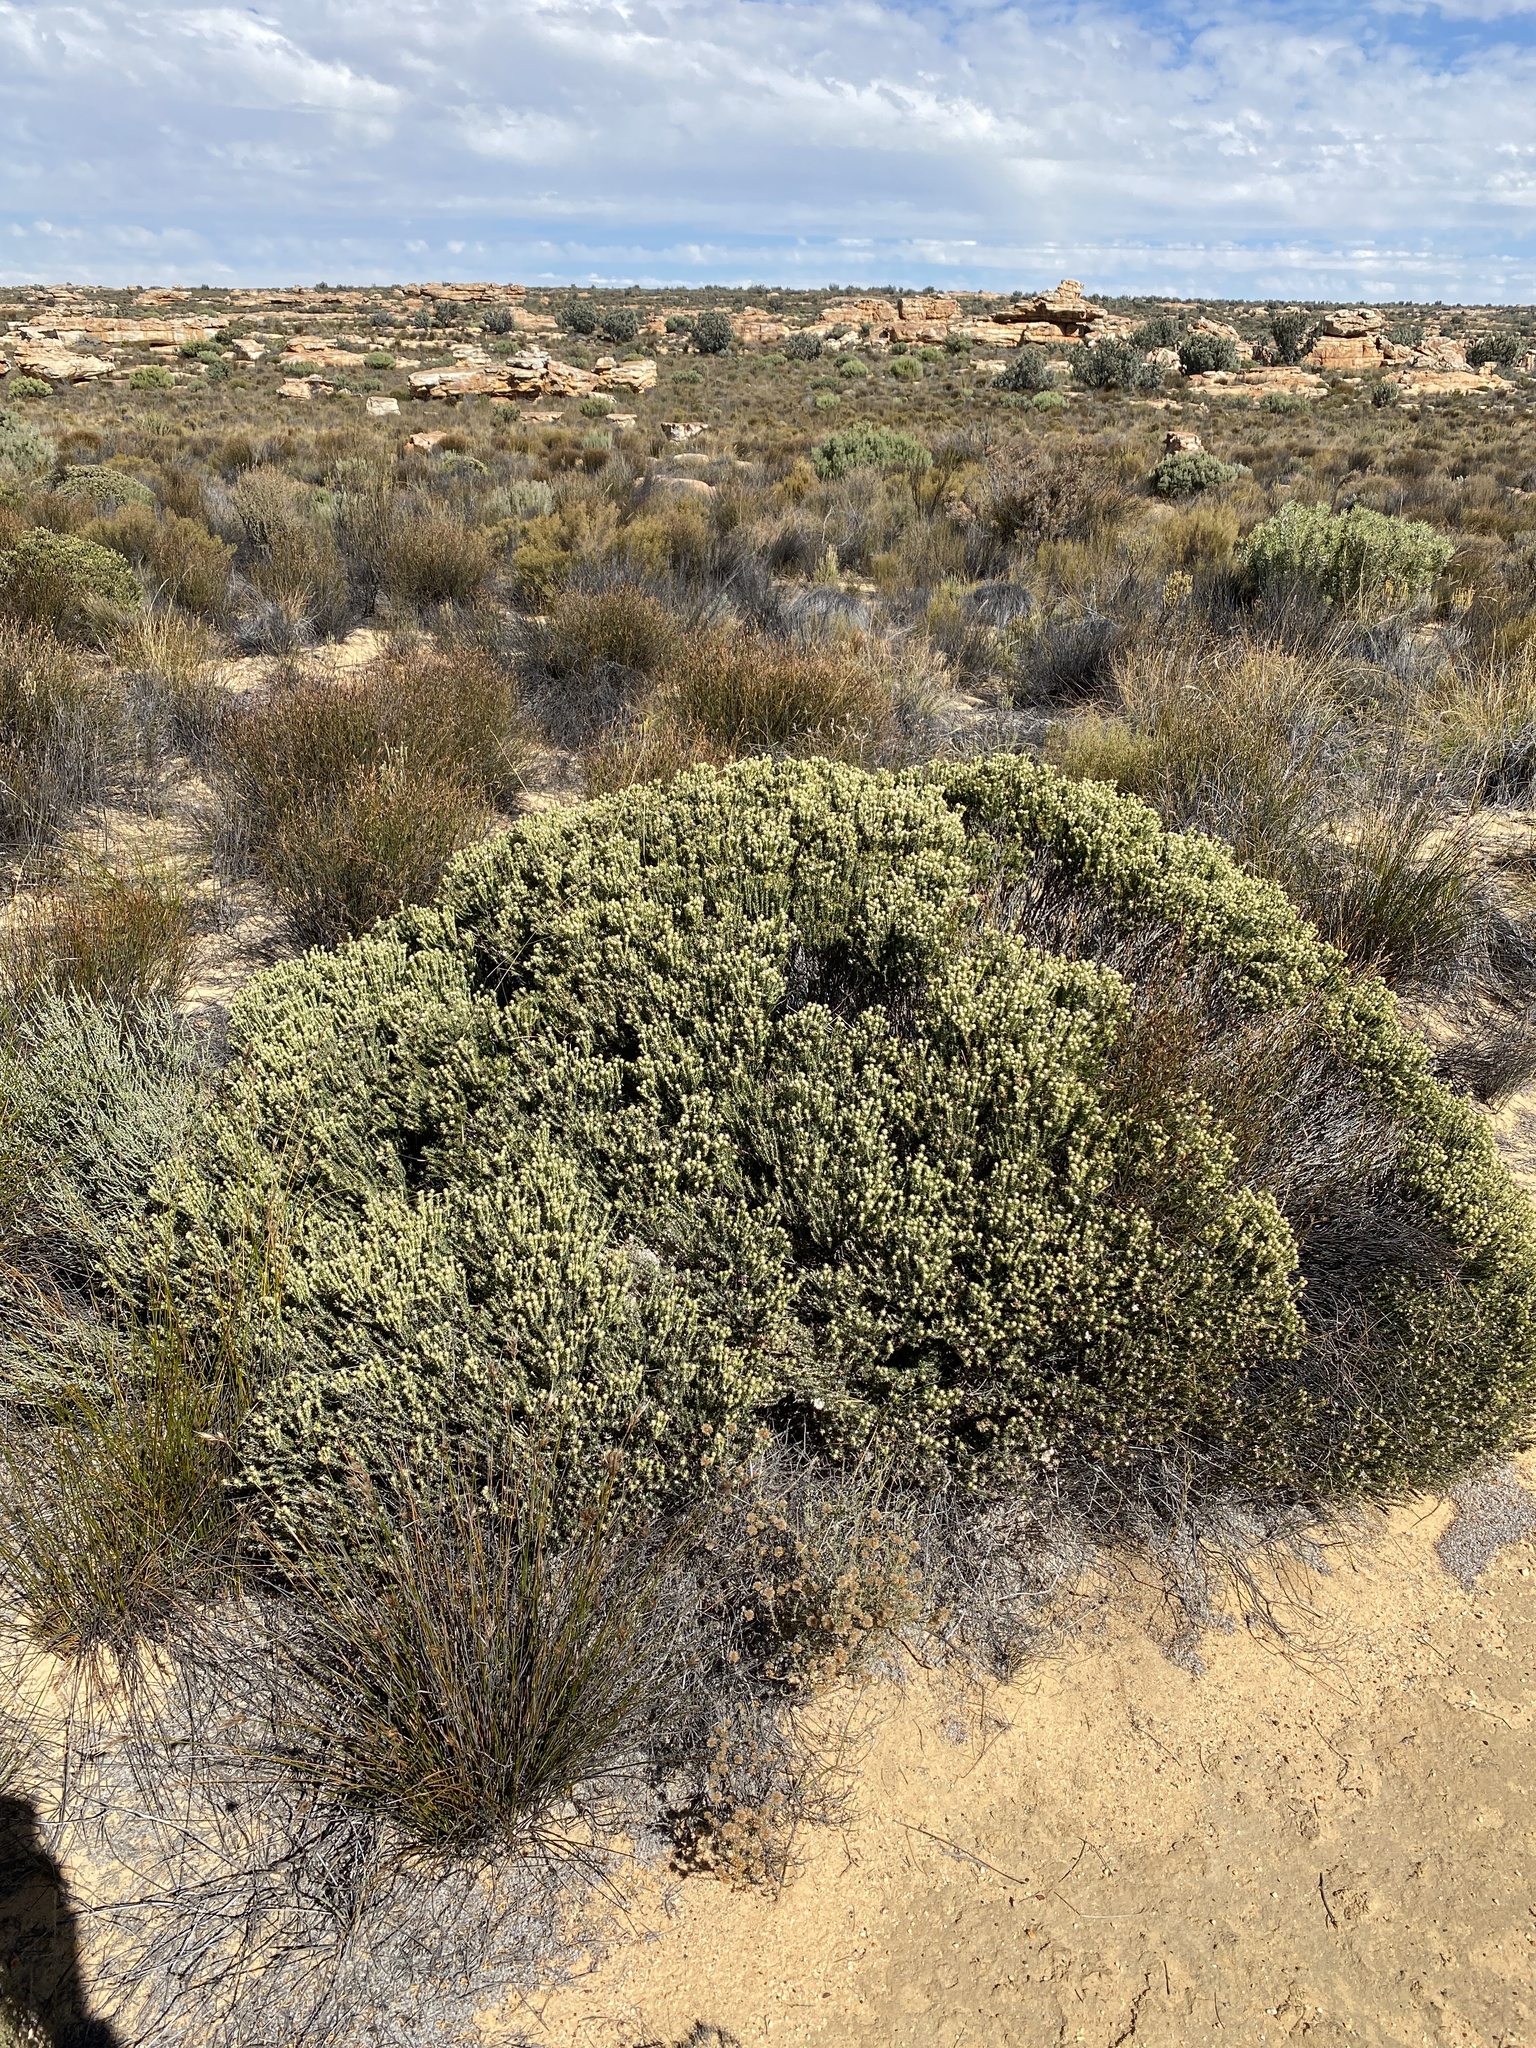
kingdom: Plantae
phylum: Tracheophyta
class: Magnoliopsida
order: Rosales
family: Rhamnaceae
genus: Phylica
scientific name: Phylica pauciflora
